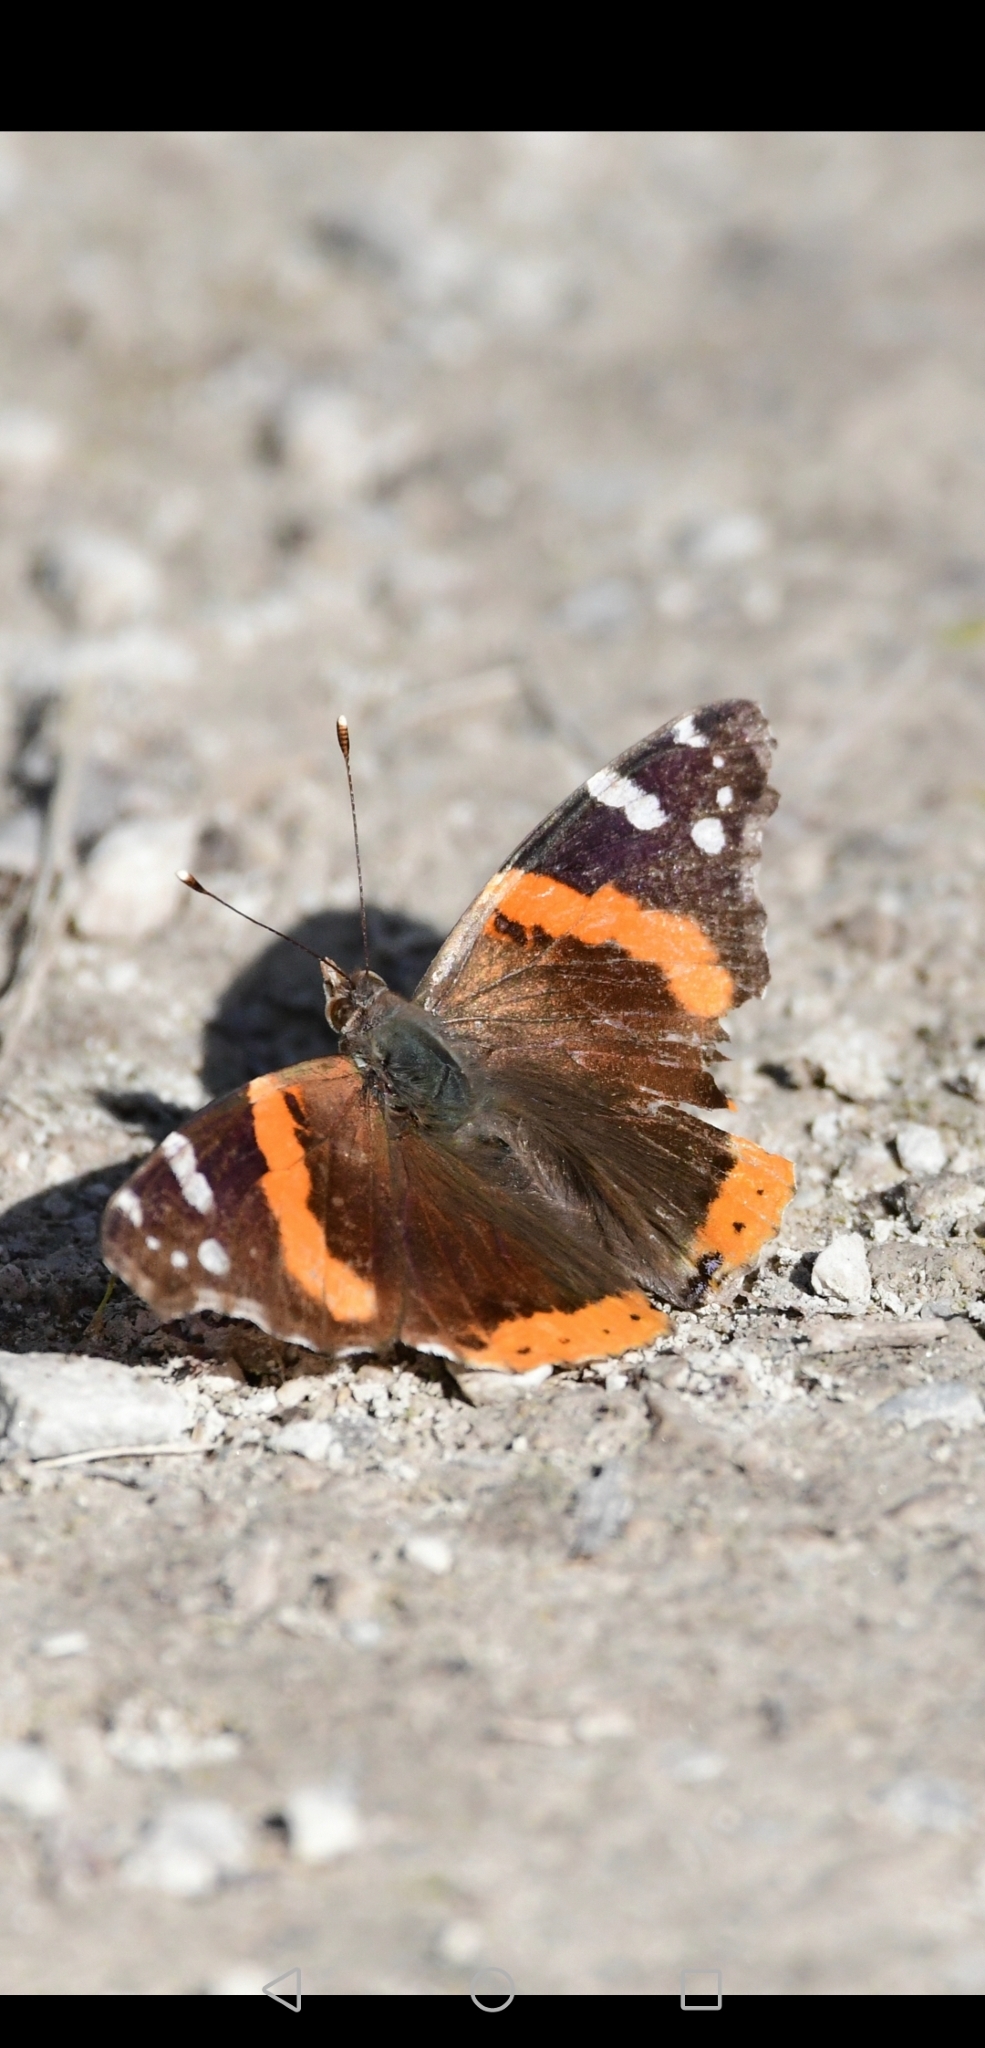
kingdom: Animalia
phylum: Arthropoda
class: Insecta
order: Lepidoptera
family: Nymphalidae
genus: Vanessa
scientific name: Vanessa atalanta
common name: Red admiral
